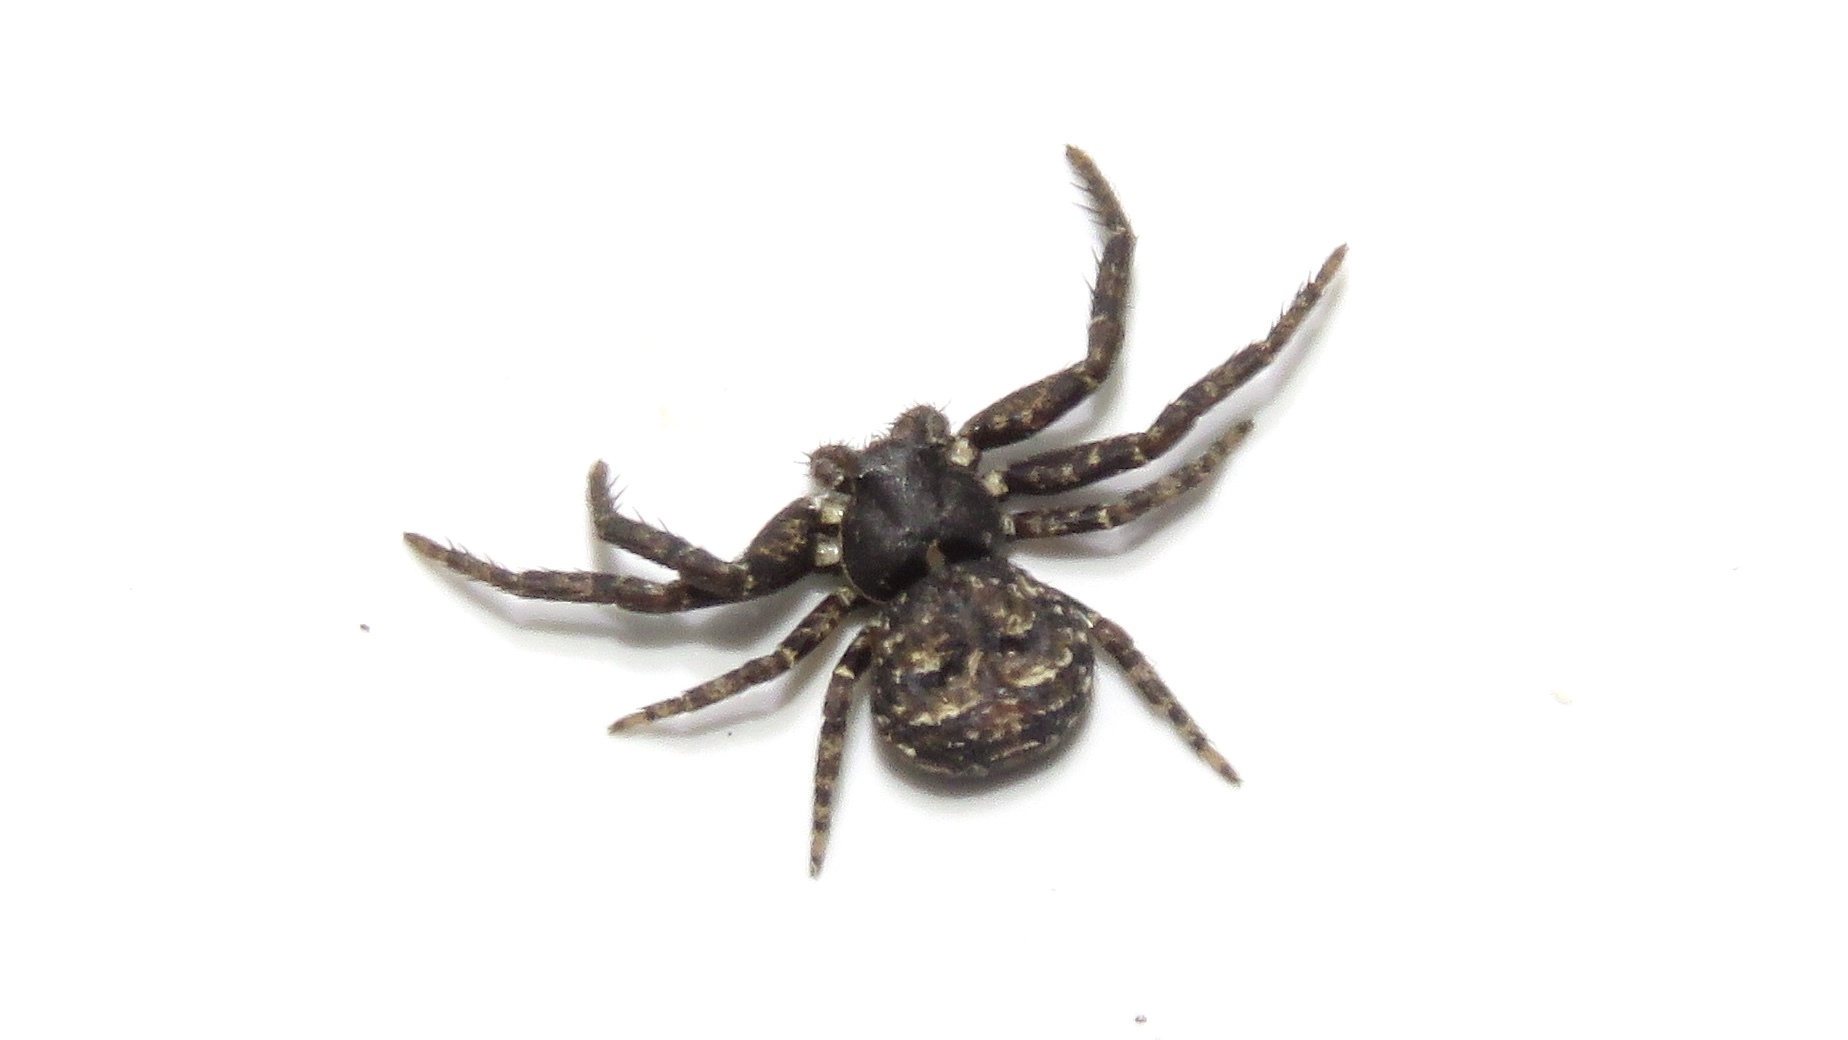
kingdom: Animalia
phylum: Arthropoda
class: Arachnida
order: Araneae
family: Thomisidae
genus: Bassaniana
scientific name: Bassaniana versicolor
